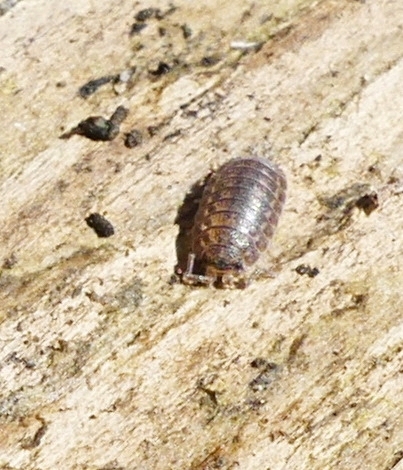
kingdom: Animalia
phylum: Arthropoda
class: Malacostraca
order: Isopoda
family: Trachelipodidae
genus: Trachelipus
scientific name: Trachelipus rathkii
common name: Isopod
